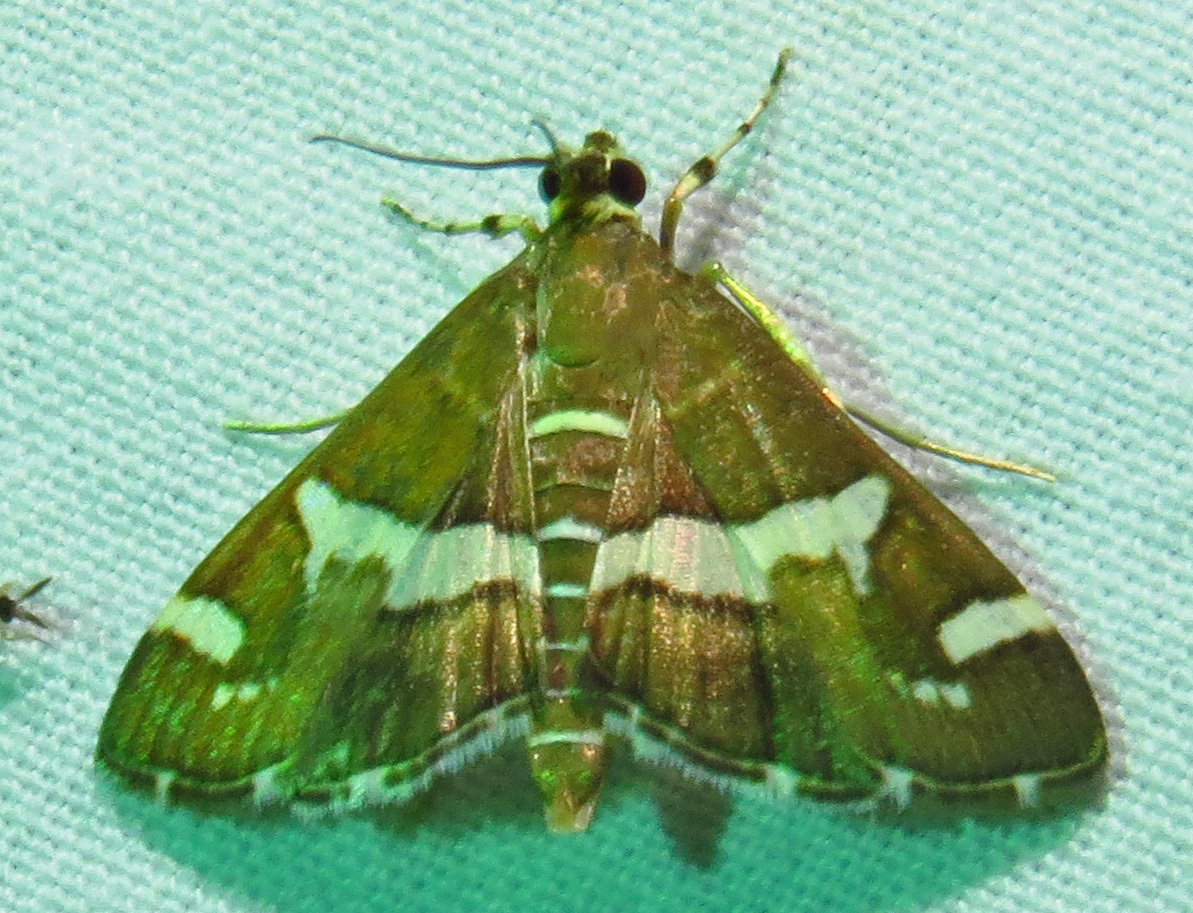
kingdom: Animalia
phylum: Arthropoda
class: Insecta
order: Lepidoptera
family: Crambidae
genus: Spoladea
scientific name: Spoladea recurvalis
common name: Beet webworm moth
